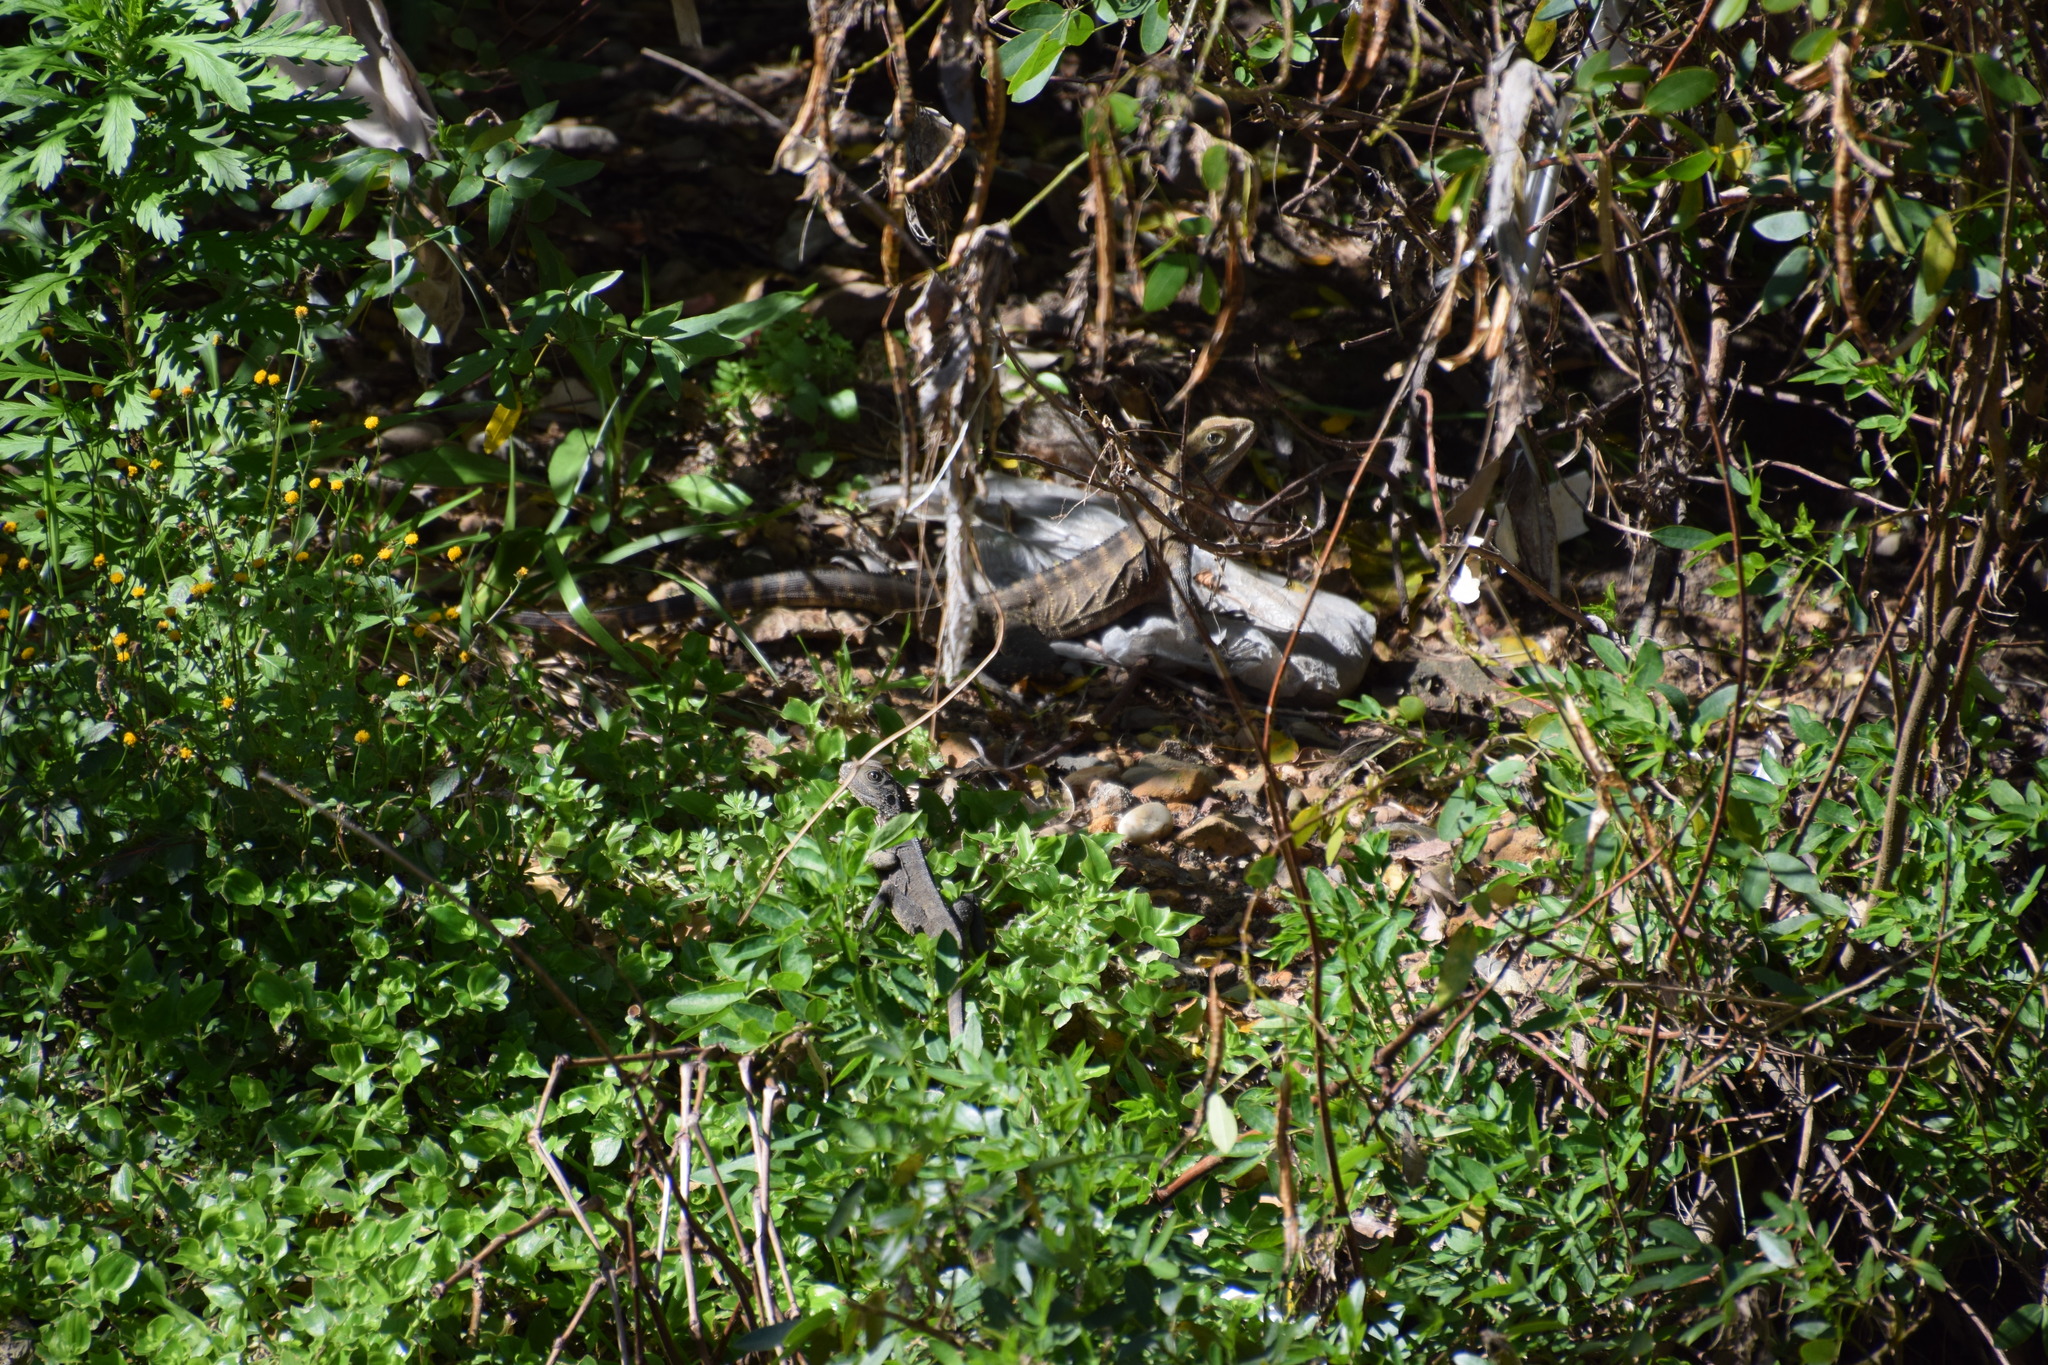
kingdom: Animalia
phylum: Chordata
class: Squamata
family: Agamidae
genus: Intellagama
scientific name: Intellagama lesueurii
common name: Eastern water dragon
